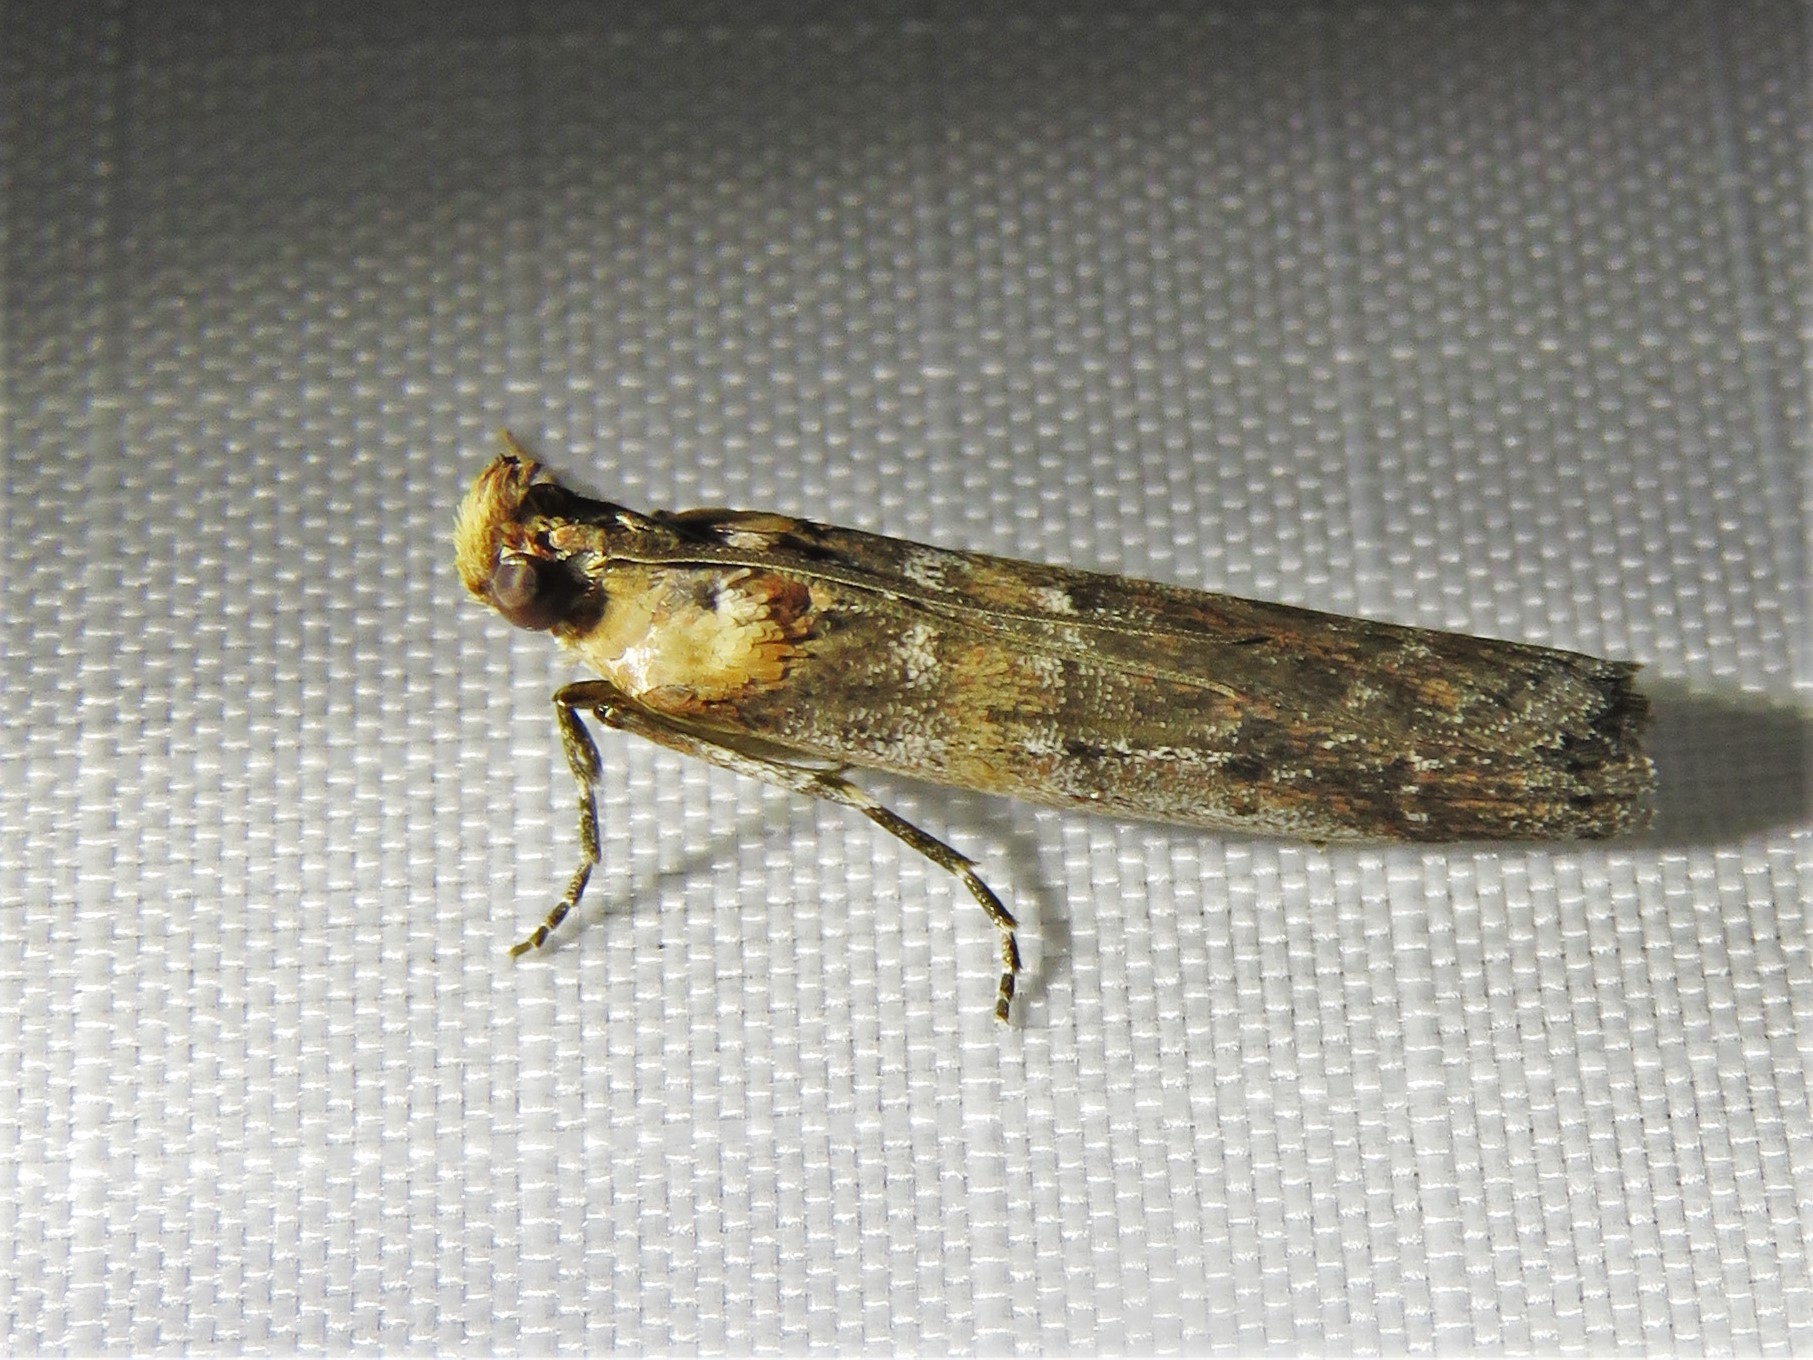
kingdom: Animalia
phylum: Arthropoda
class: Insecta
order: Lepidoptera
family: Pyralidae
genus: Adelphia
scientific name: Adelphia petrella
